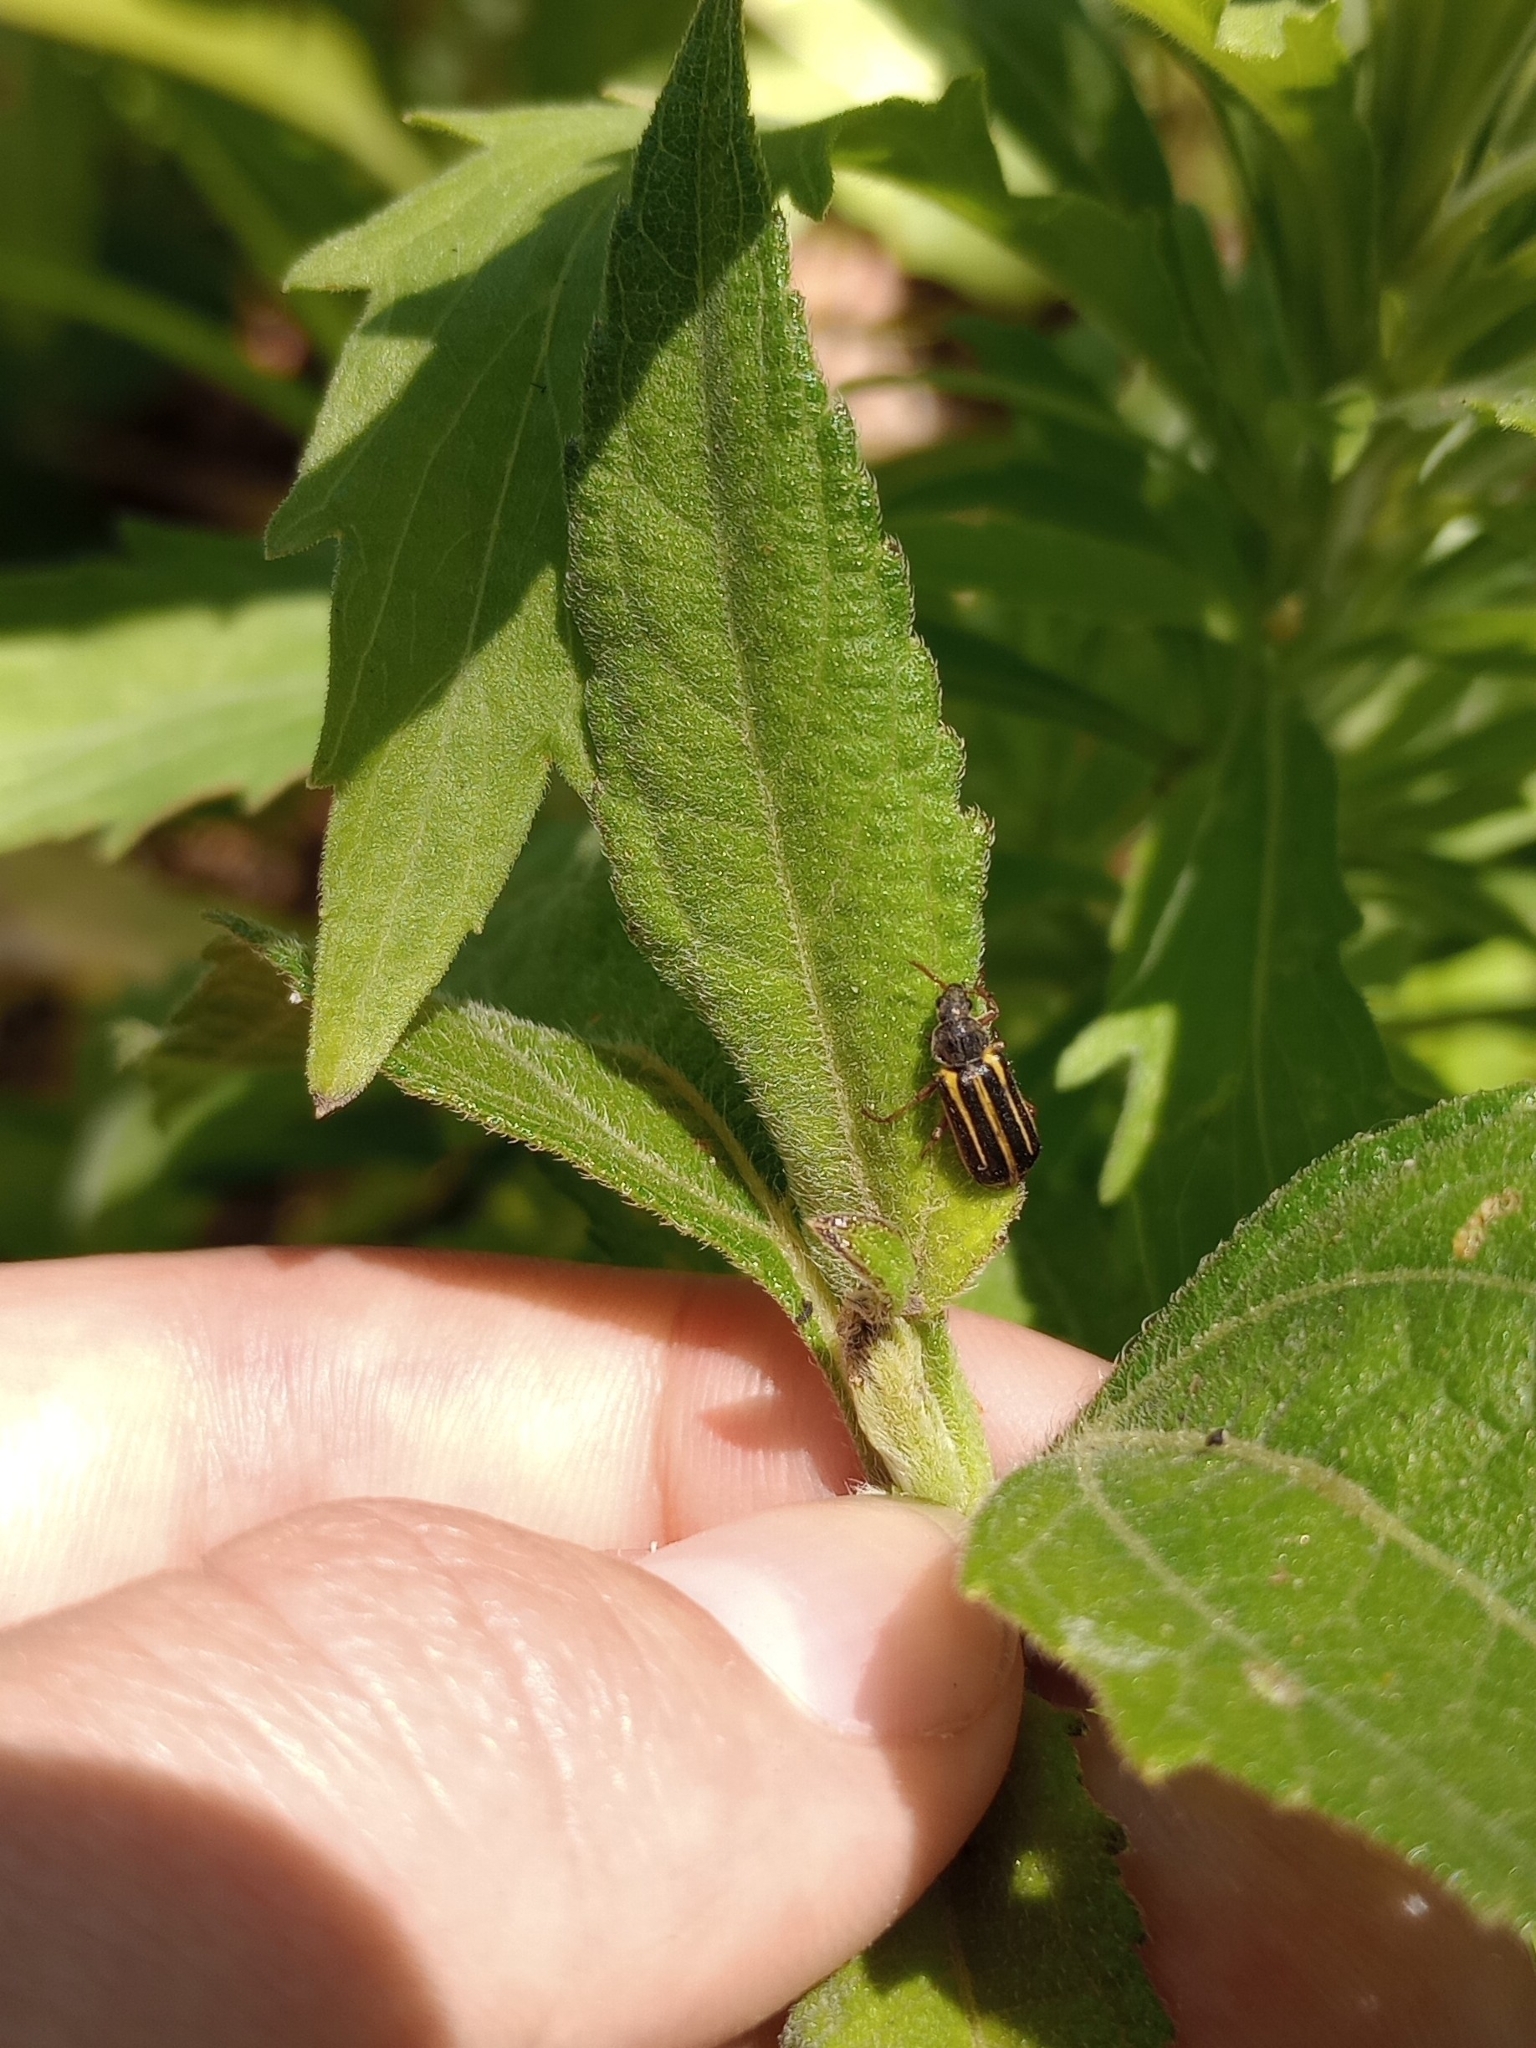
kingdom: Animalia
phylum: Arthropoda
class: Insecta
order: Coleoptera
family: Melyridae
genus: Astylus
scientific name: Astylus
